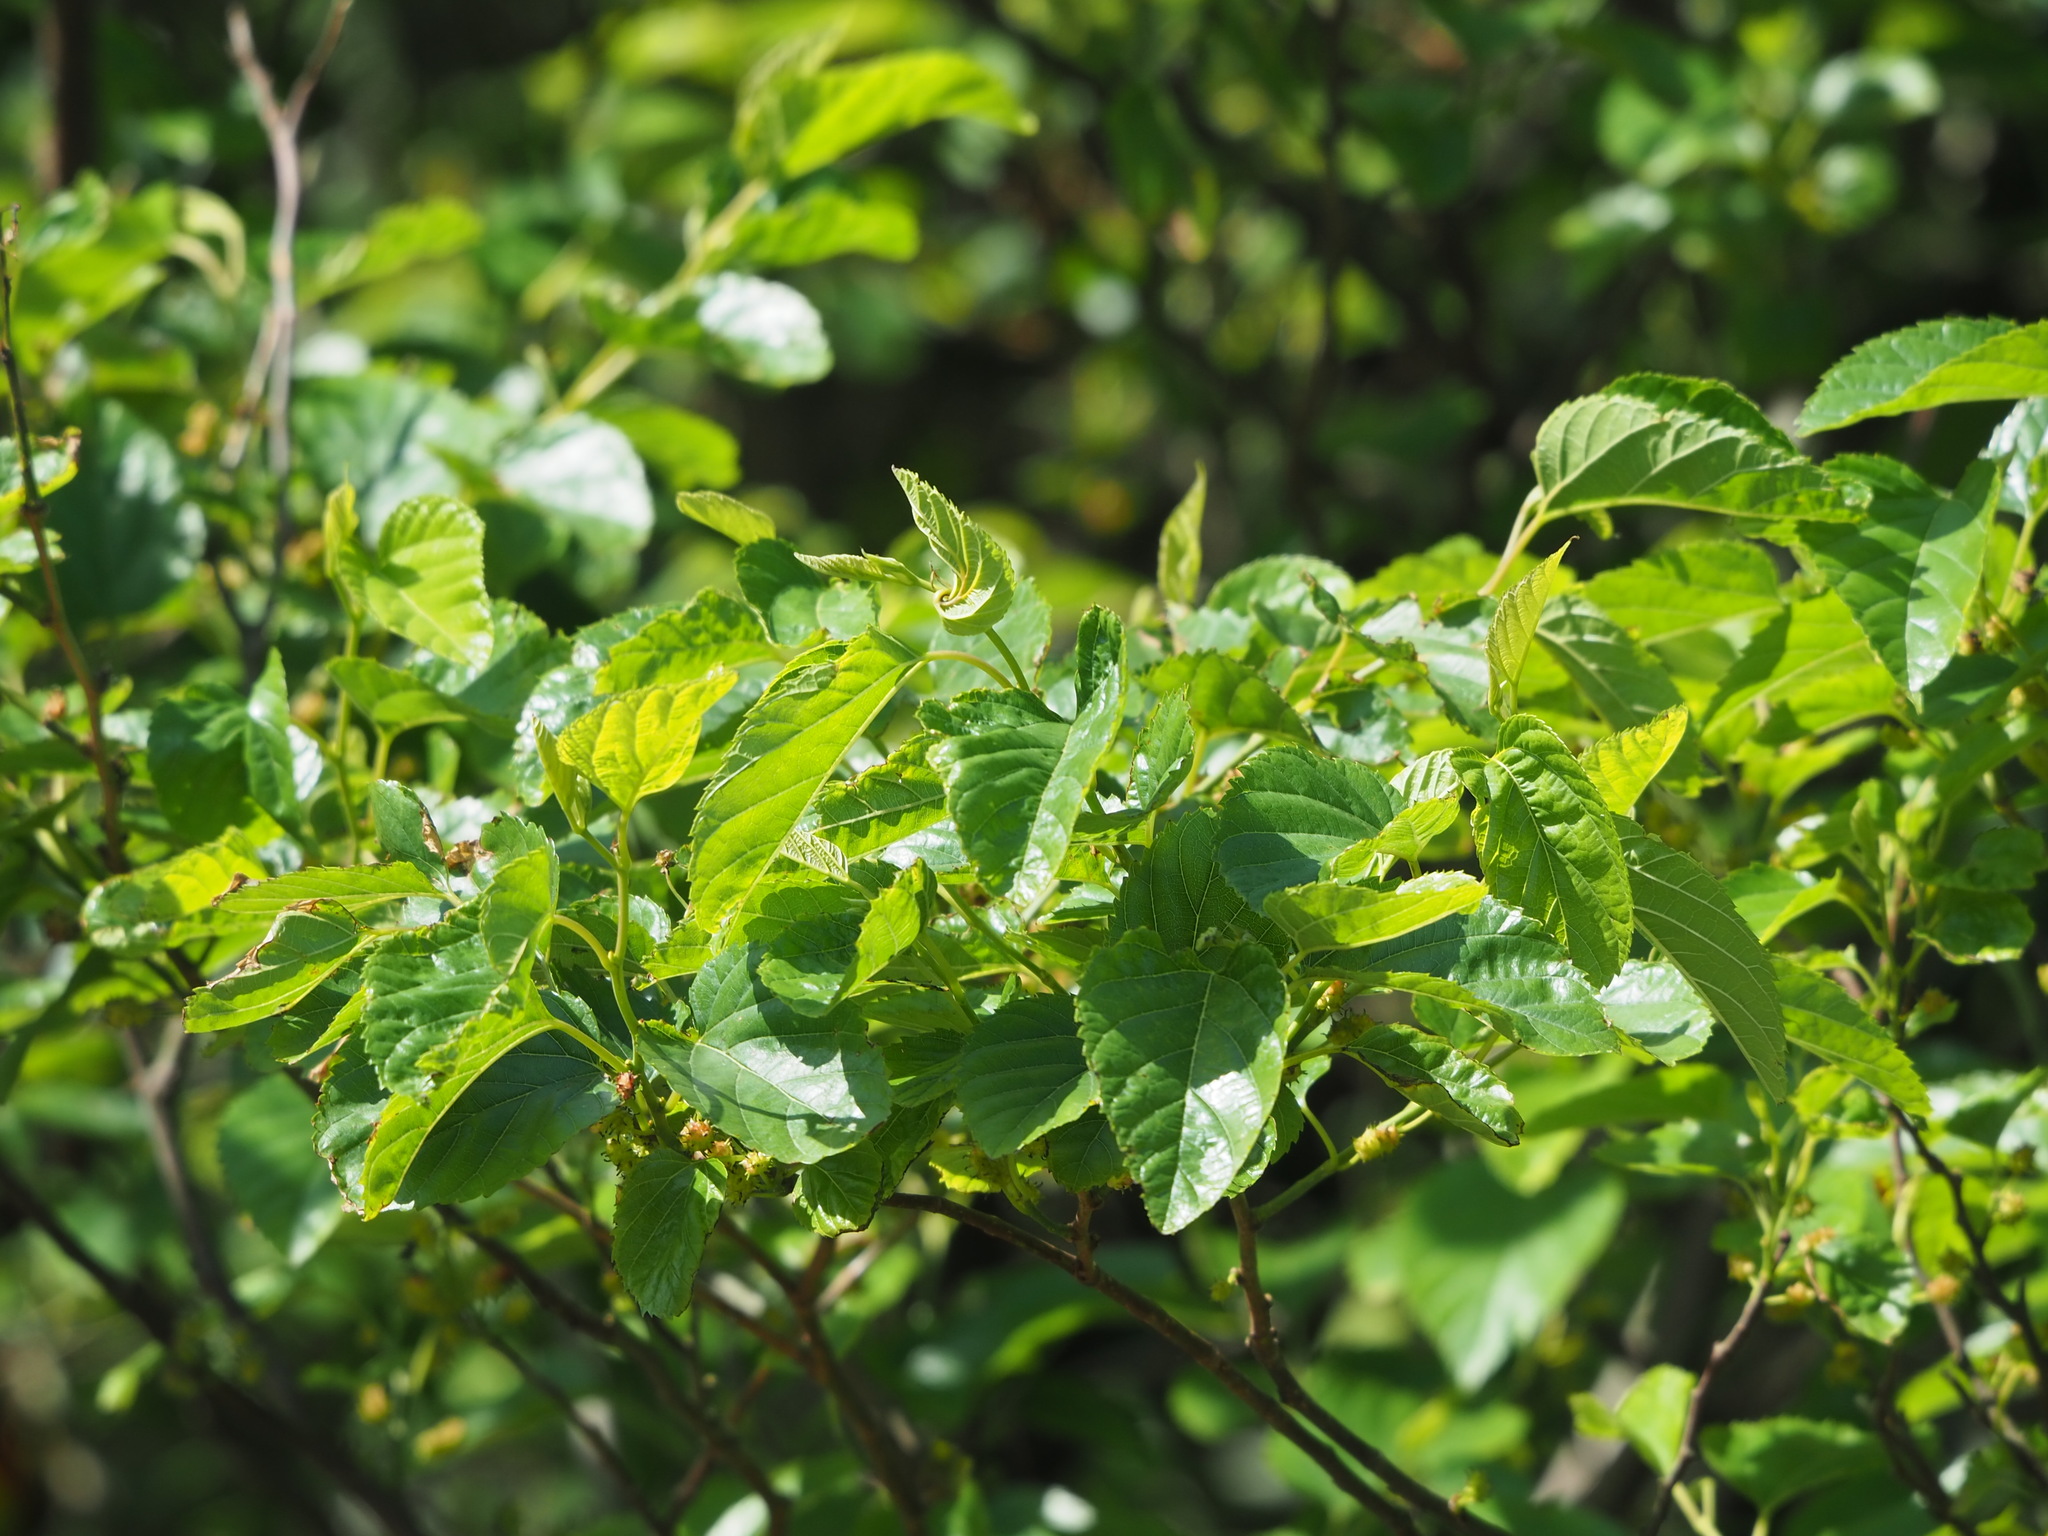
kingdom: Plantae
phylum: Tracheophyta
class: Magnoliopsida
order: Rosales
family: Moraceae
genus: Morus
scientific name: Morus indica
